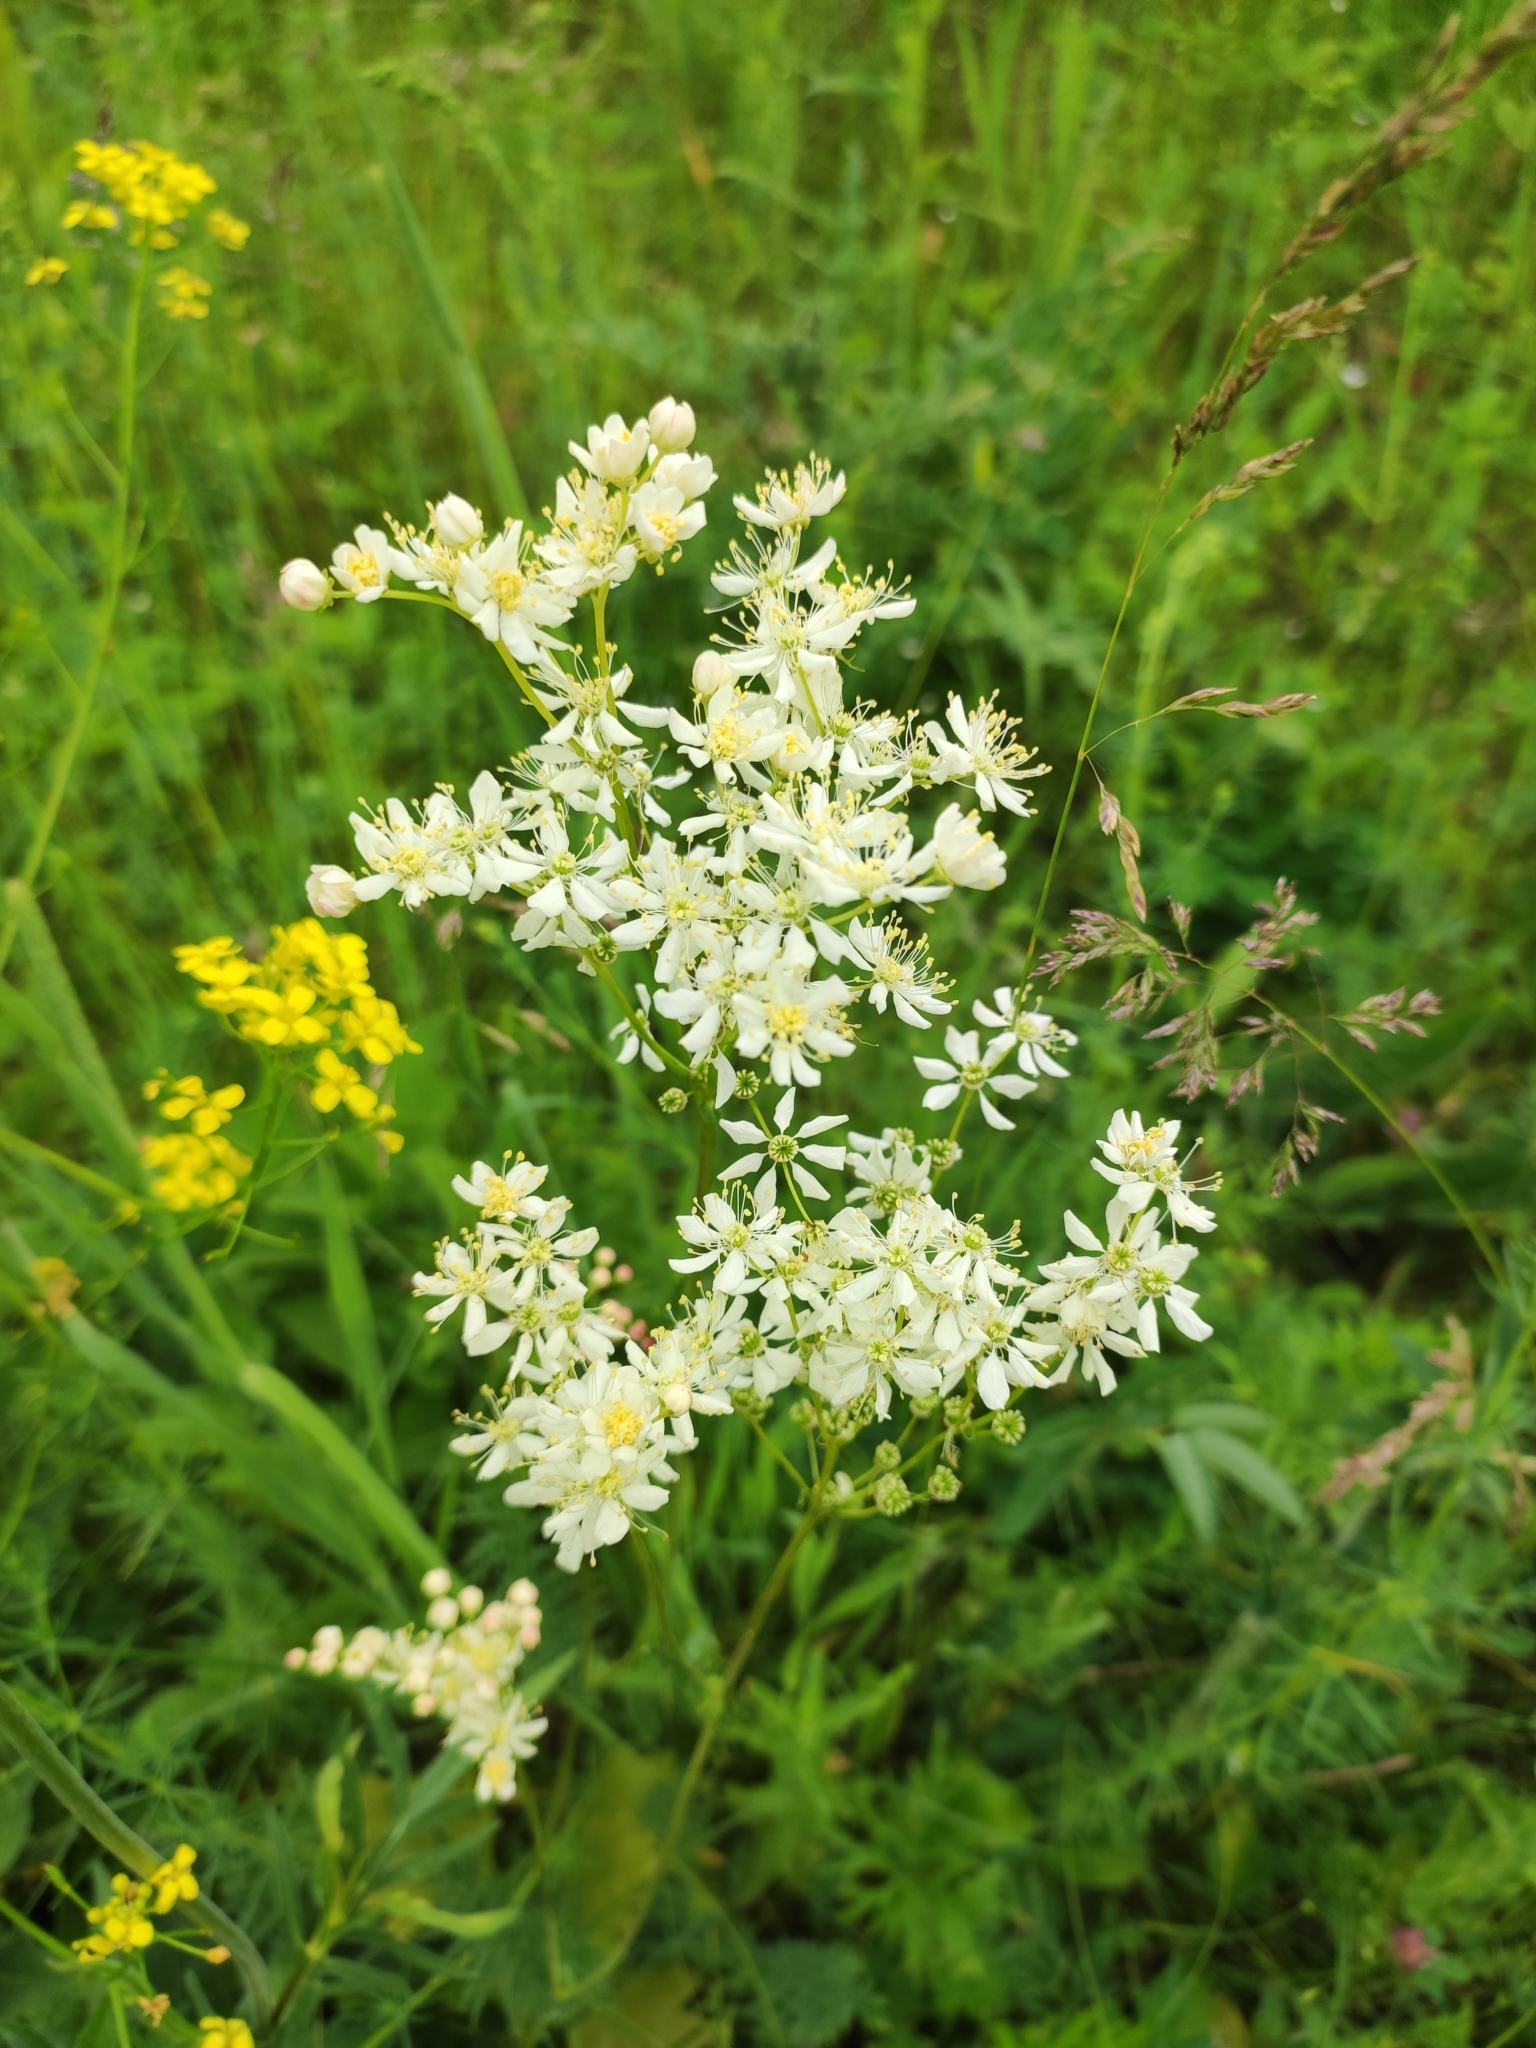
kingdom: Plantae
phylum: Tracheophyta
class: Magnoliopsida
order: Rosales
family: Rosaceae
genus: Filipendula
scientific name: Filipendula vulgaris
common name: Dropwort
